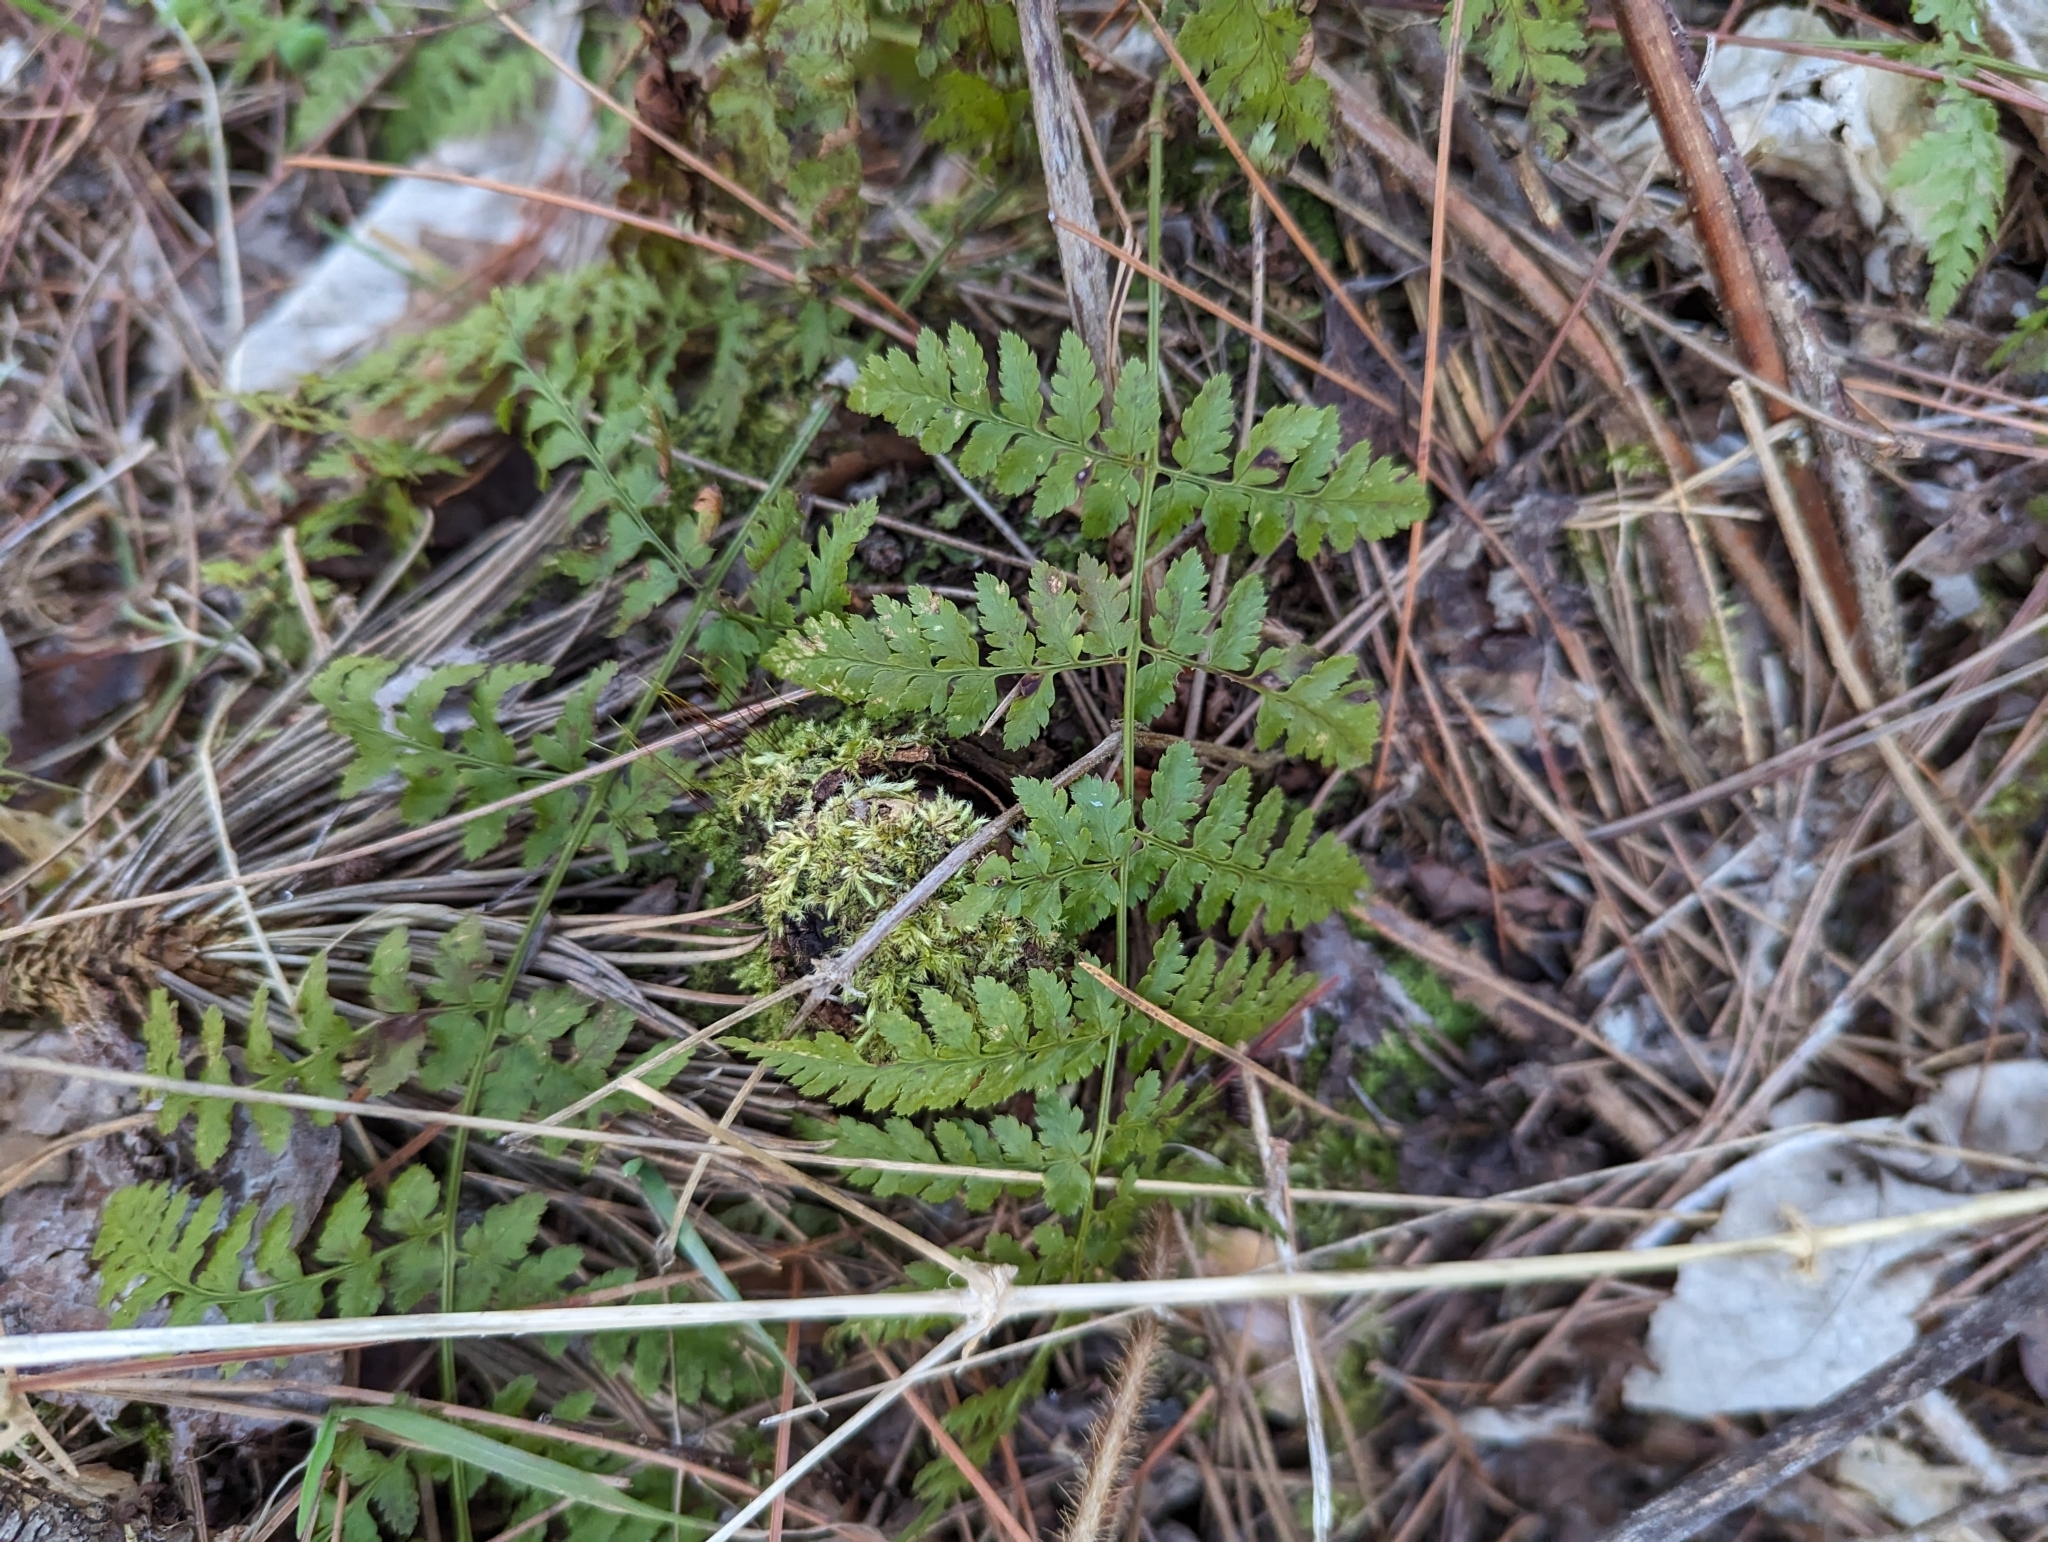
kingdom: Plantae
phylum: Tracheophyta
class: Polypodiopsida
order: Polypodiales
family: Dryopteridaceae
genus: Dryopteris
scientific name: Dryopteris intermedia
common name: Evergreen wood fern
